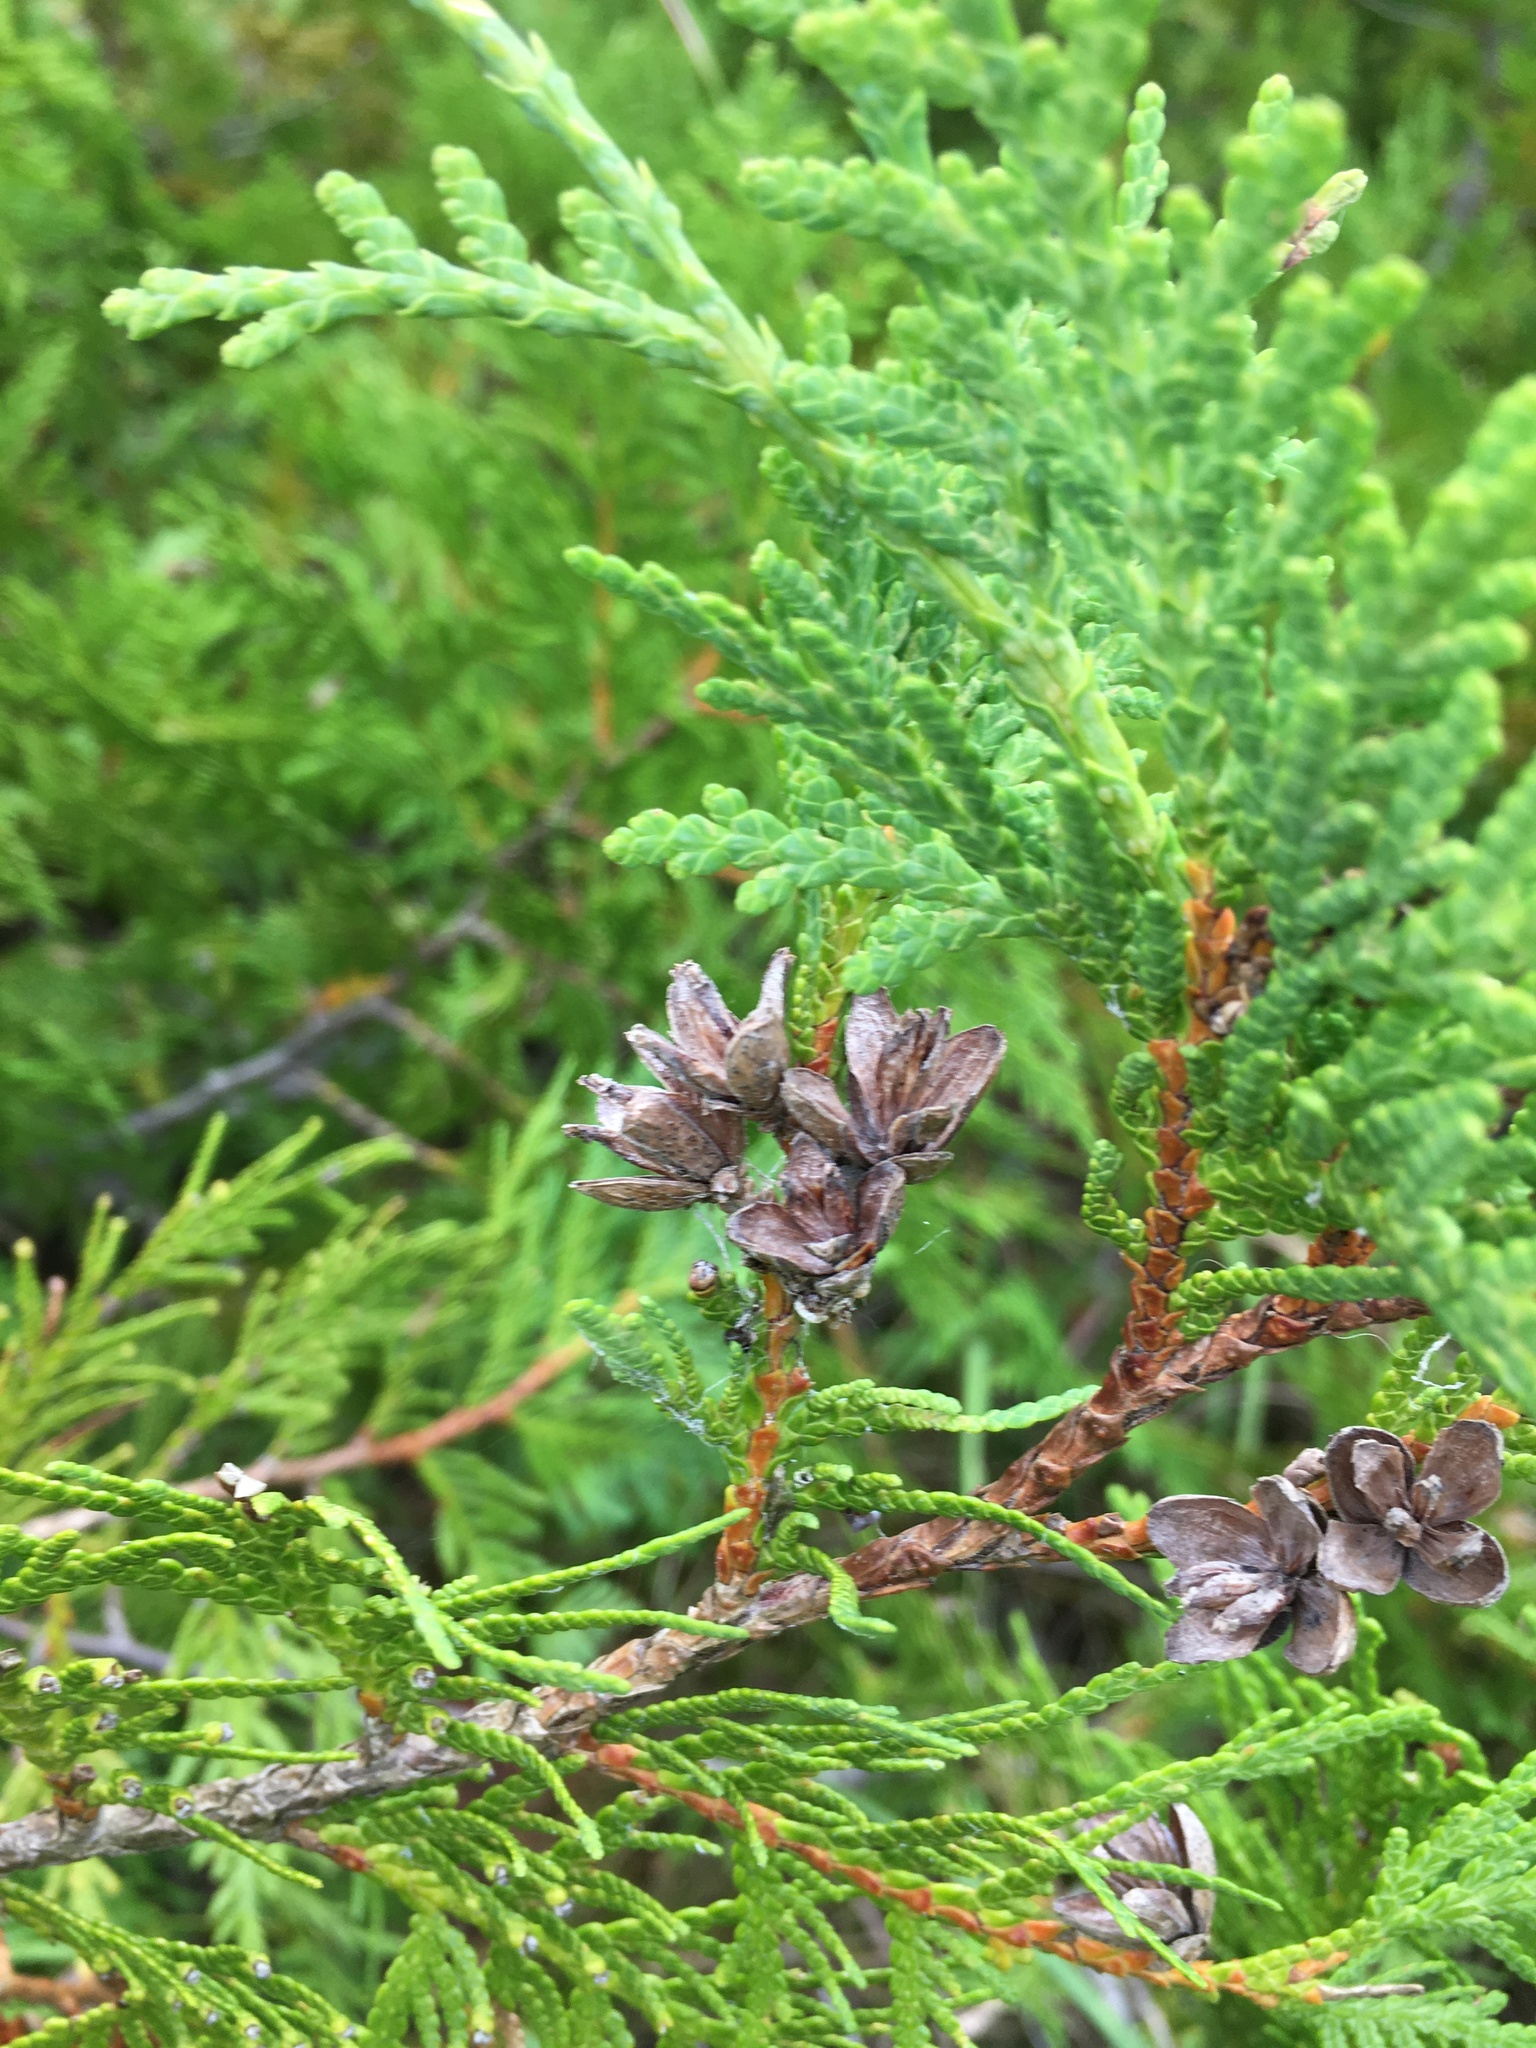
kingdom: Plantae
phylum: Tracheophyta
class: Pinopsida
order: Pinales
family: Cupressaceae
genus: Thuja
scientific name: Thuja occidentalis
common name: Northern white-cedar
